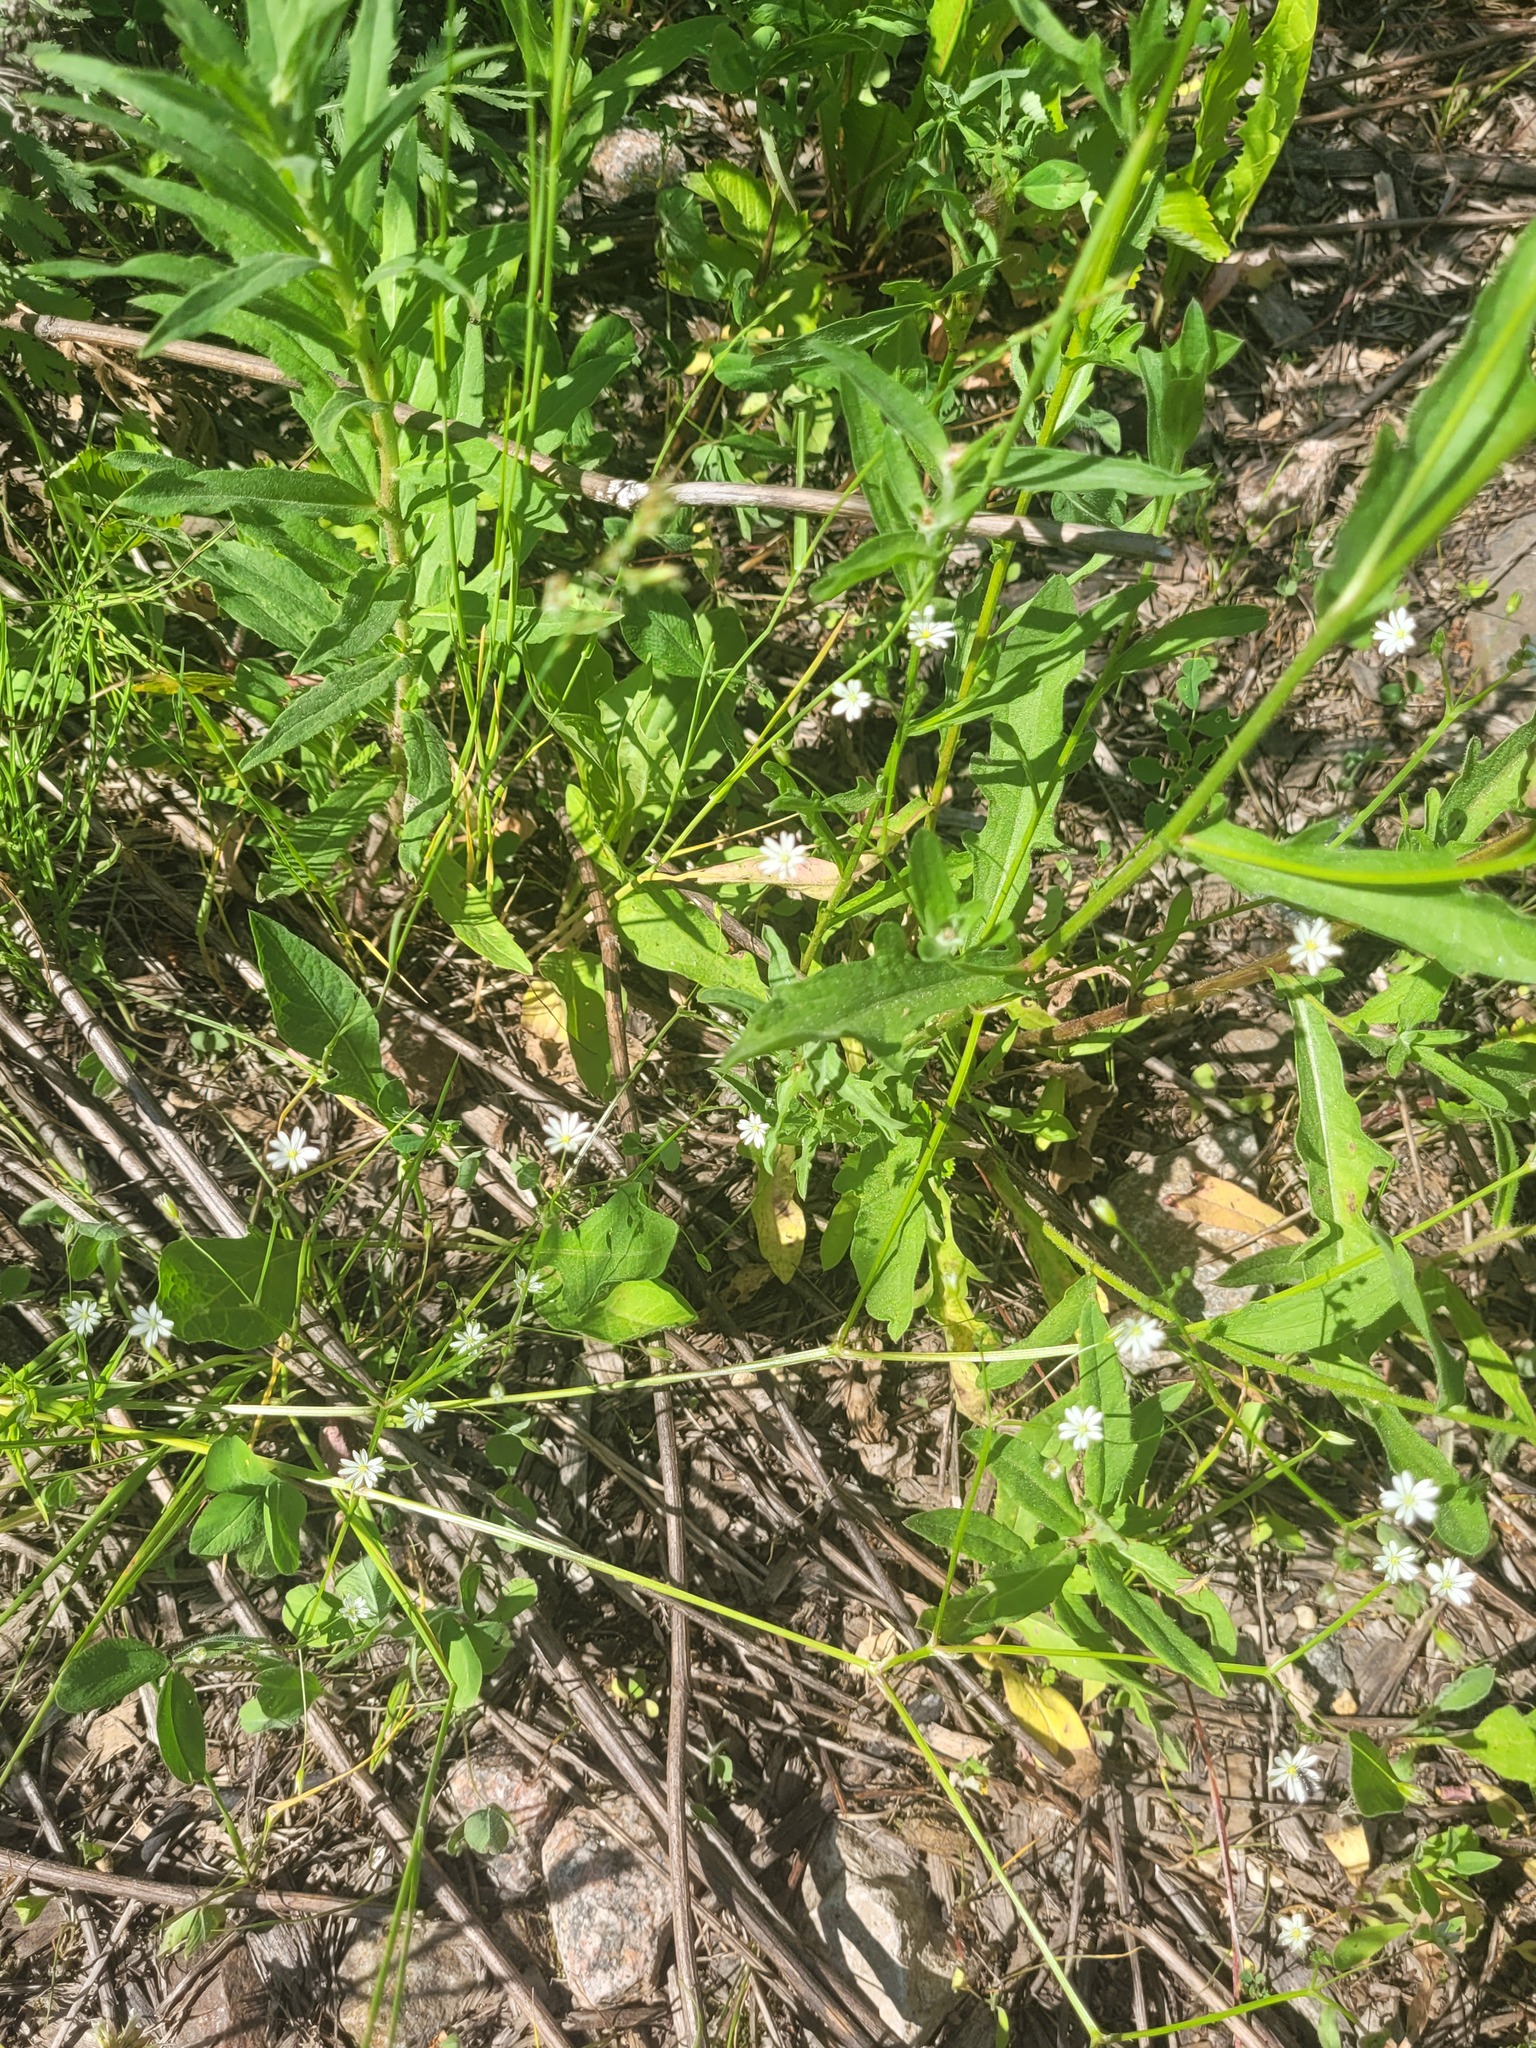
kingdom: Plantae
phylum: Tracheophyta
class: Magnoliopsida
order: Caryophyllales
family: Caryophyllaceae
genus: Stellaria
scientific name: Stellaria graminea
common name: Grass-like starwort
